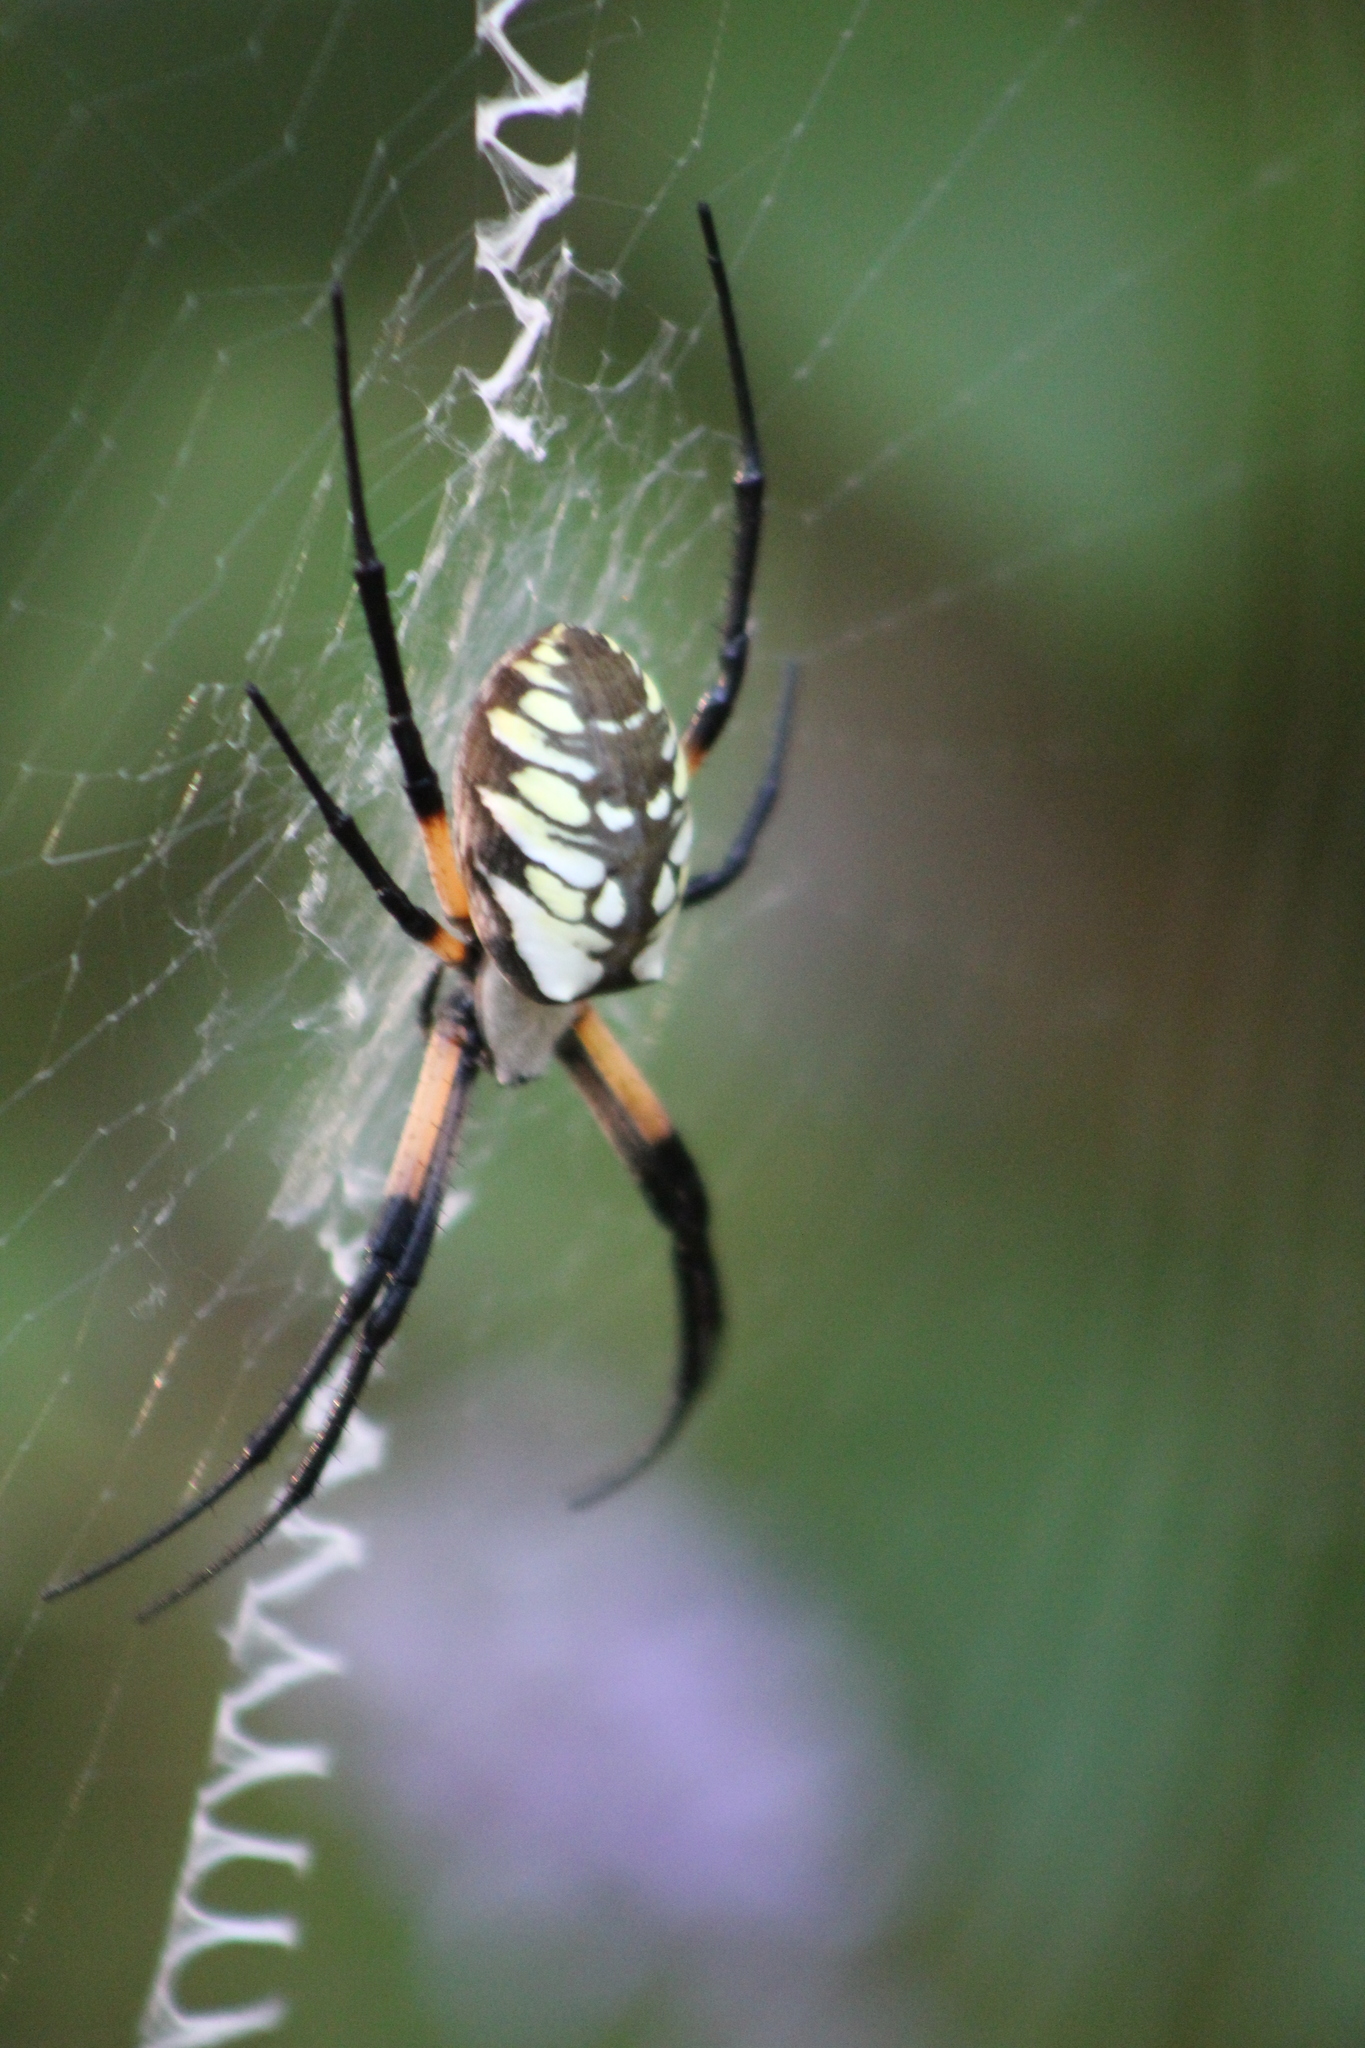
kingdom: Animalia
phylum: Arthropoda
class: Arachnida
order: Araneae
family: Araneidae
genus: Argiope
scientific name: Argiope aurantia
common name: Orb weavers
